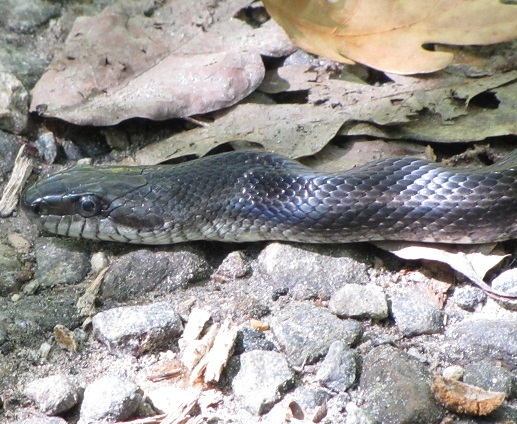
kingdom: Animalia
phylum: Chordata
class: Squamata
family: Colubridae
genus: Pantherophis
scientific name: Pantherophis alleghaniensis
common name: Eastern rat snake
